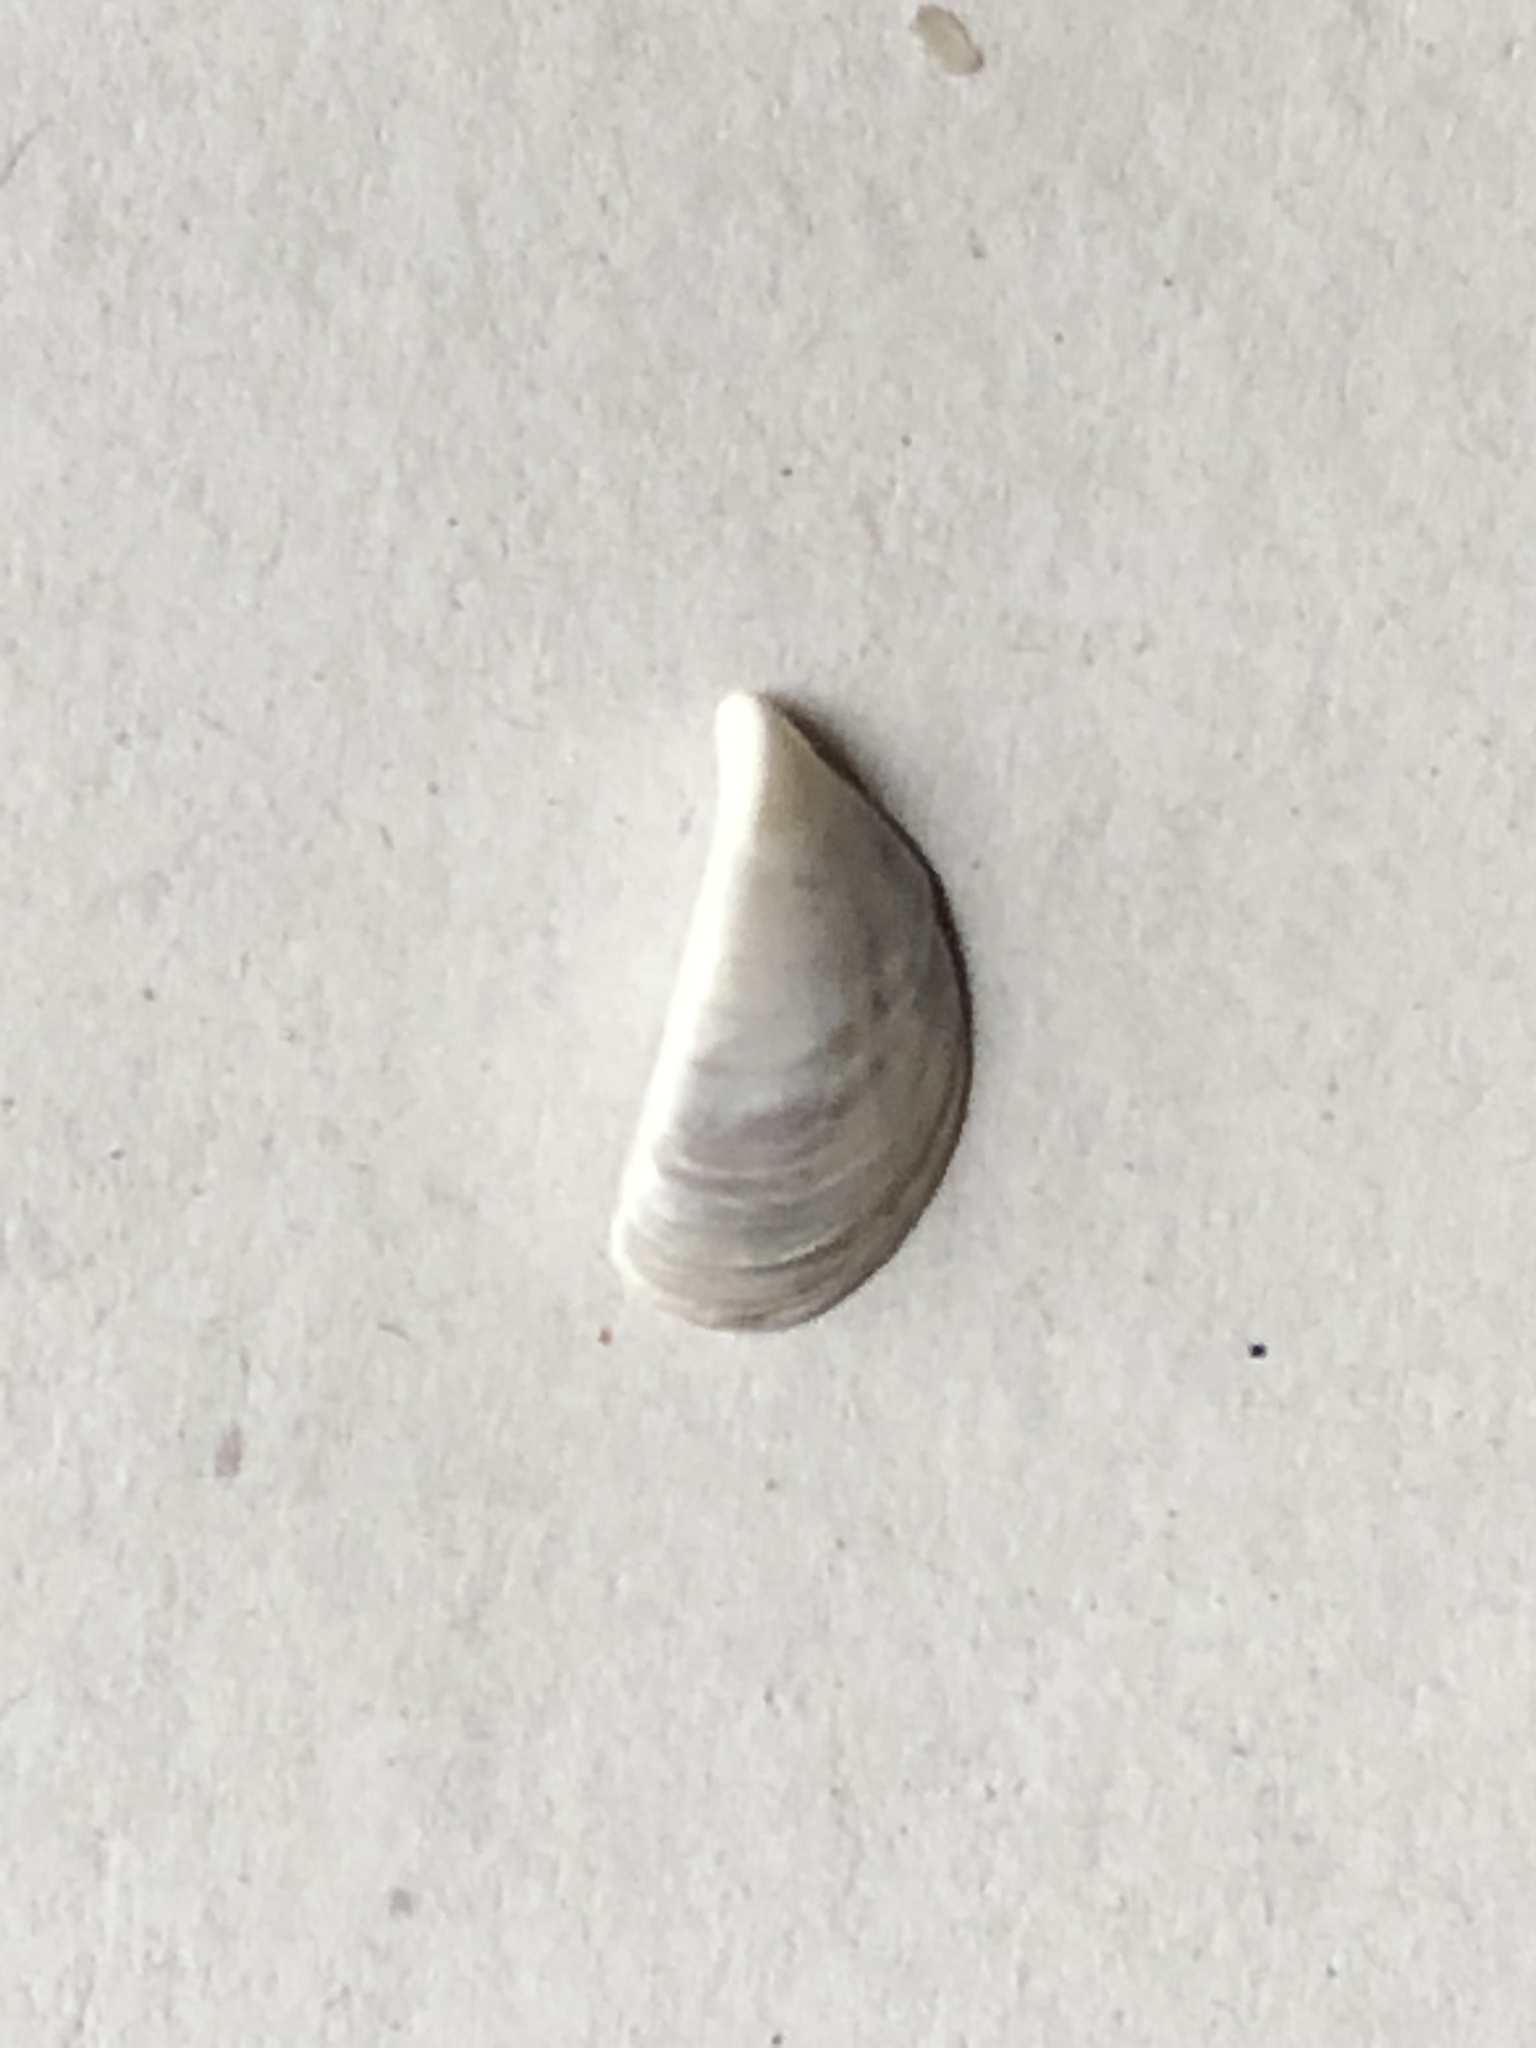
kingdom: Animalia
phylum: Mollusca
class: Bivalvia
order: Myida
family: Dreissenidae
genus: Dreissena
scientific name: Dreissena polymorpha
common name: Zebra mussel
